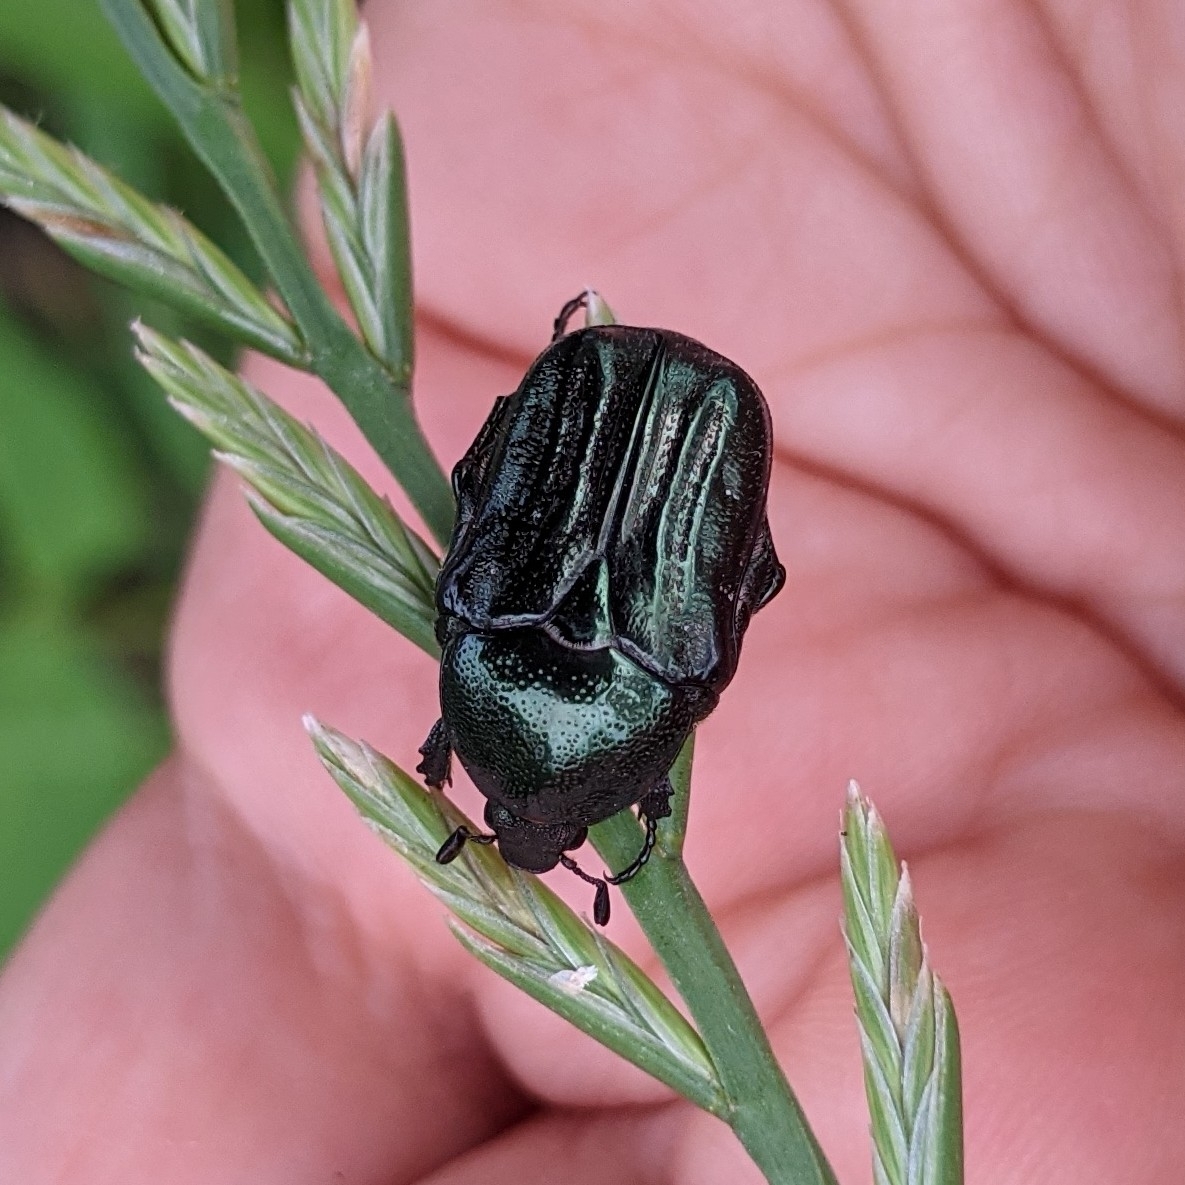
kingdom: Animalia
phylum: Arthropoda
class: Insecta
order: Coleoptera
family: Scarabaeidae
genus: Euphoria
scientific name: Euphoria sepulcralis
